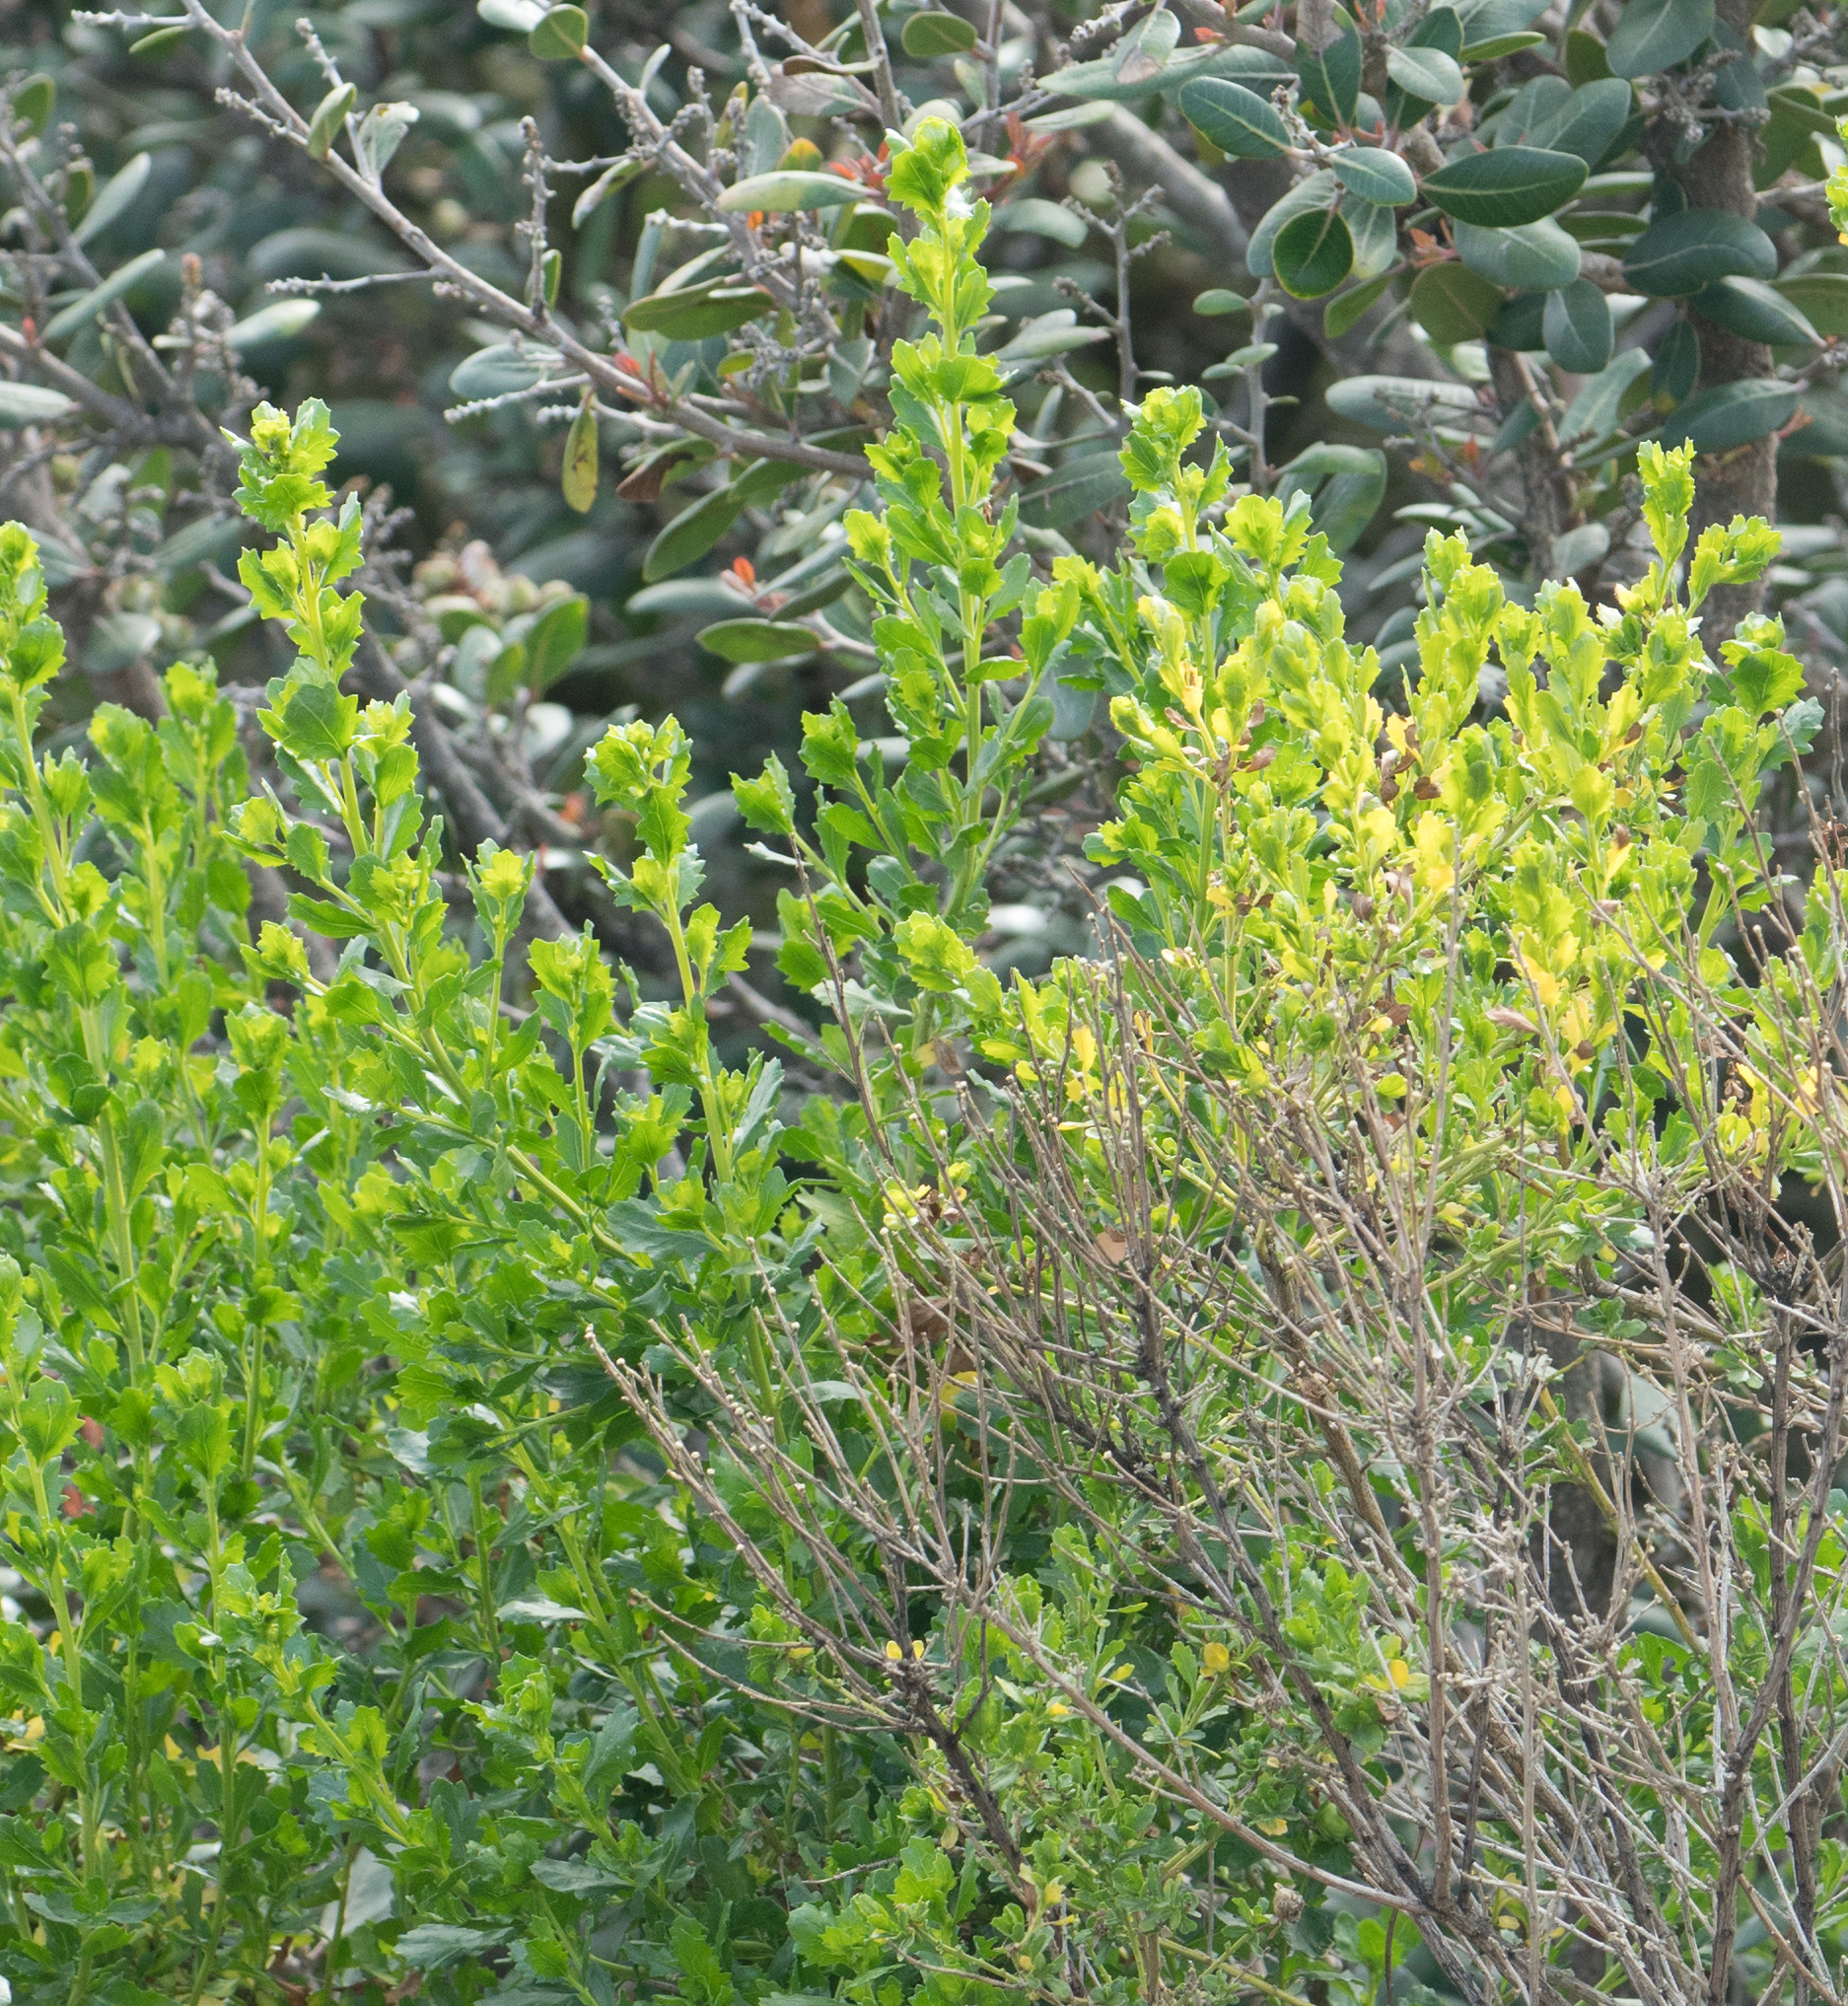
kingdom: Plantae
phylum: Tracheophyta
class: Magnoliopsida
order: Asterales
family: Asteraceae
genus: Baccharis
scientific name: Baccharis pilularis
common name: Coyotebrush
